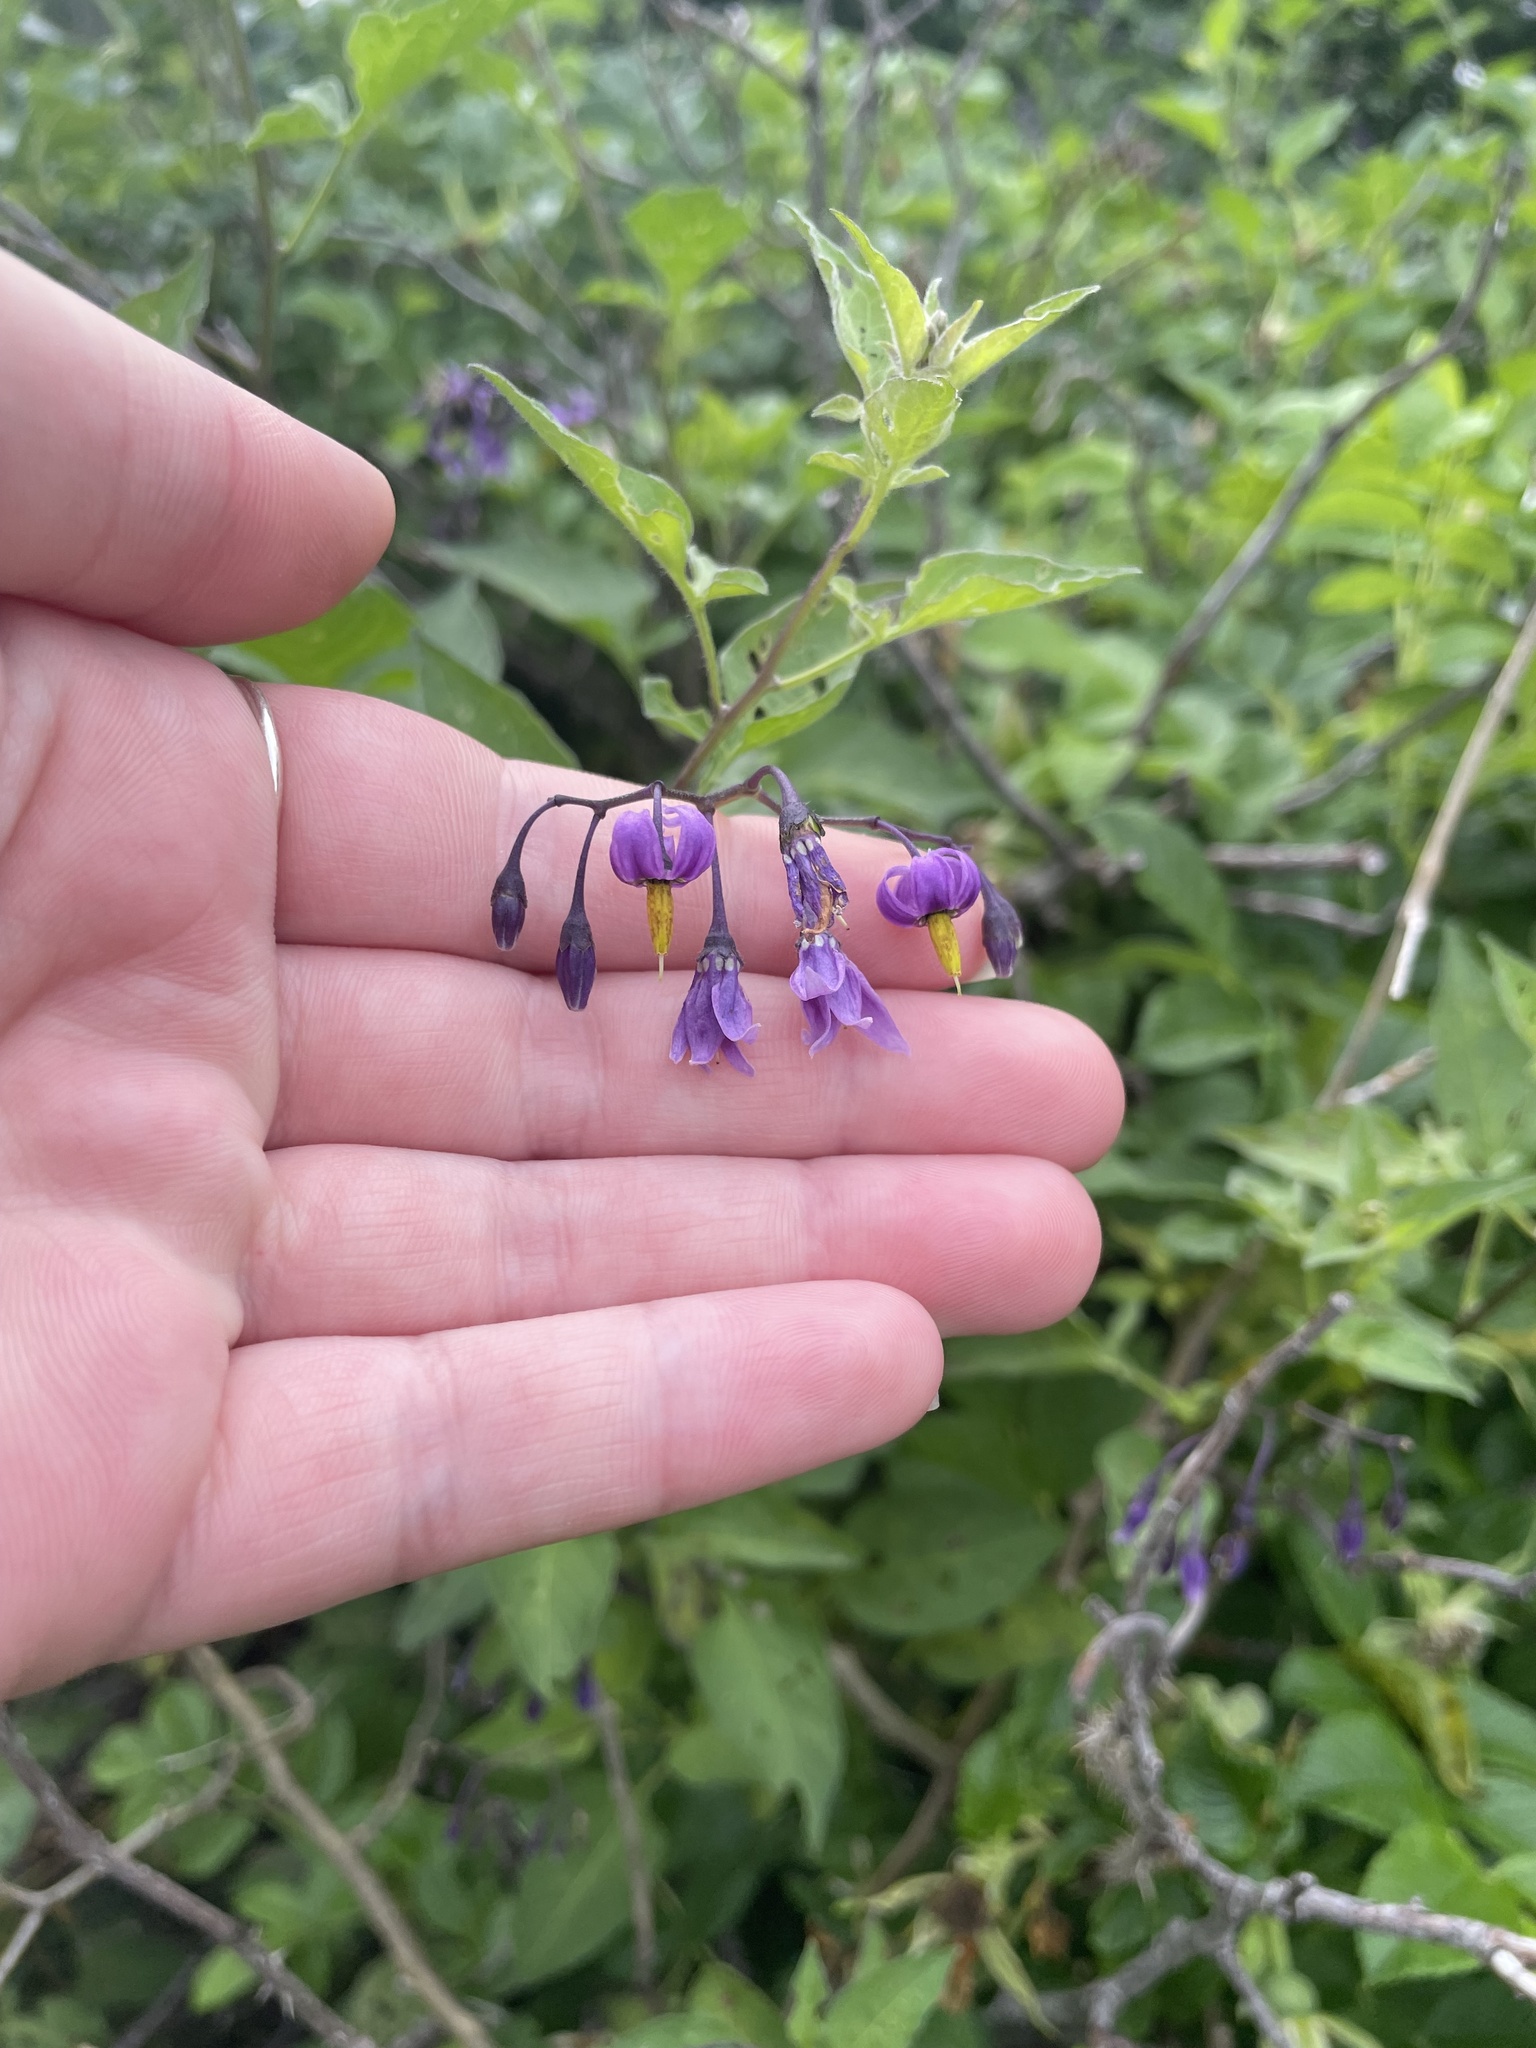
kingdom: Plantae
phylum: Tracheophyta
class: Magnoliopsida
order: Solanales
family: Solanaceae
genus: Solanum
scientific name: Solanum dulcamara
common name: Climbing nightshade
